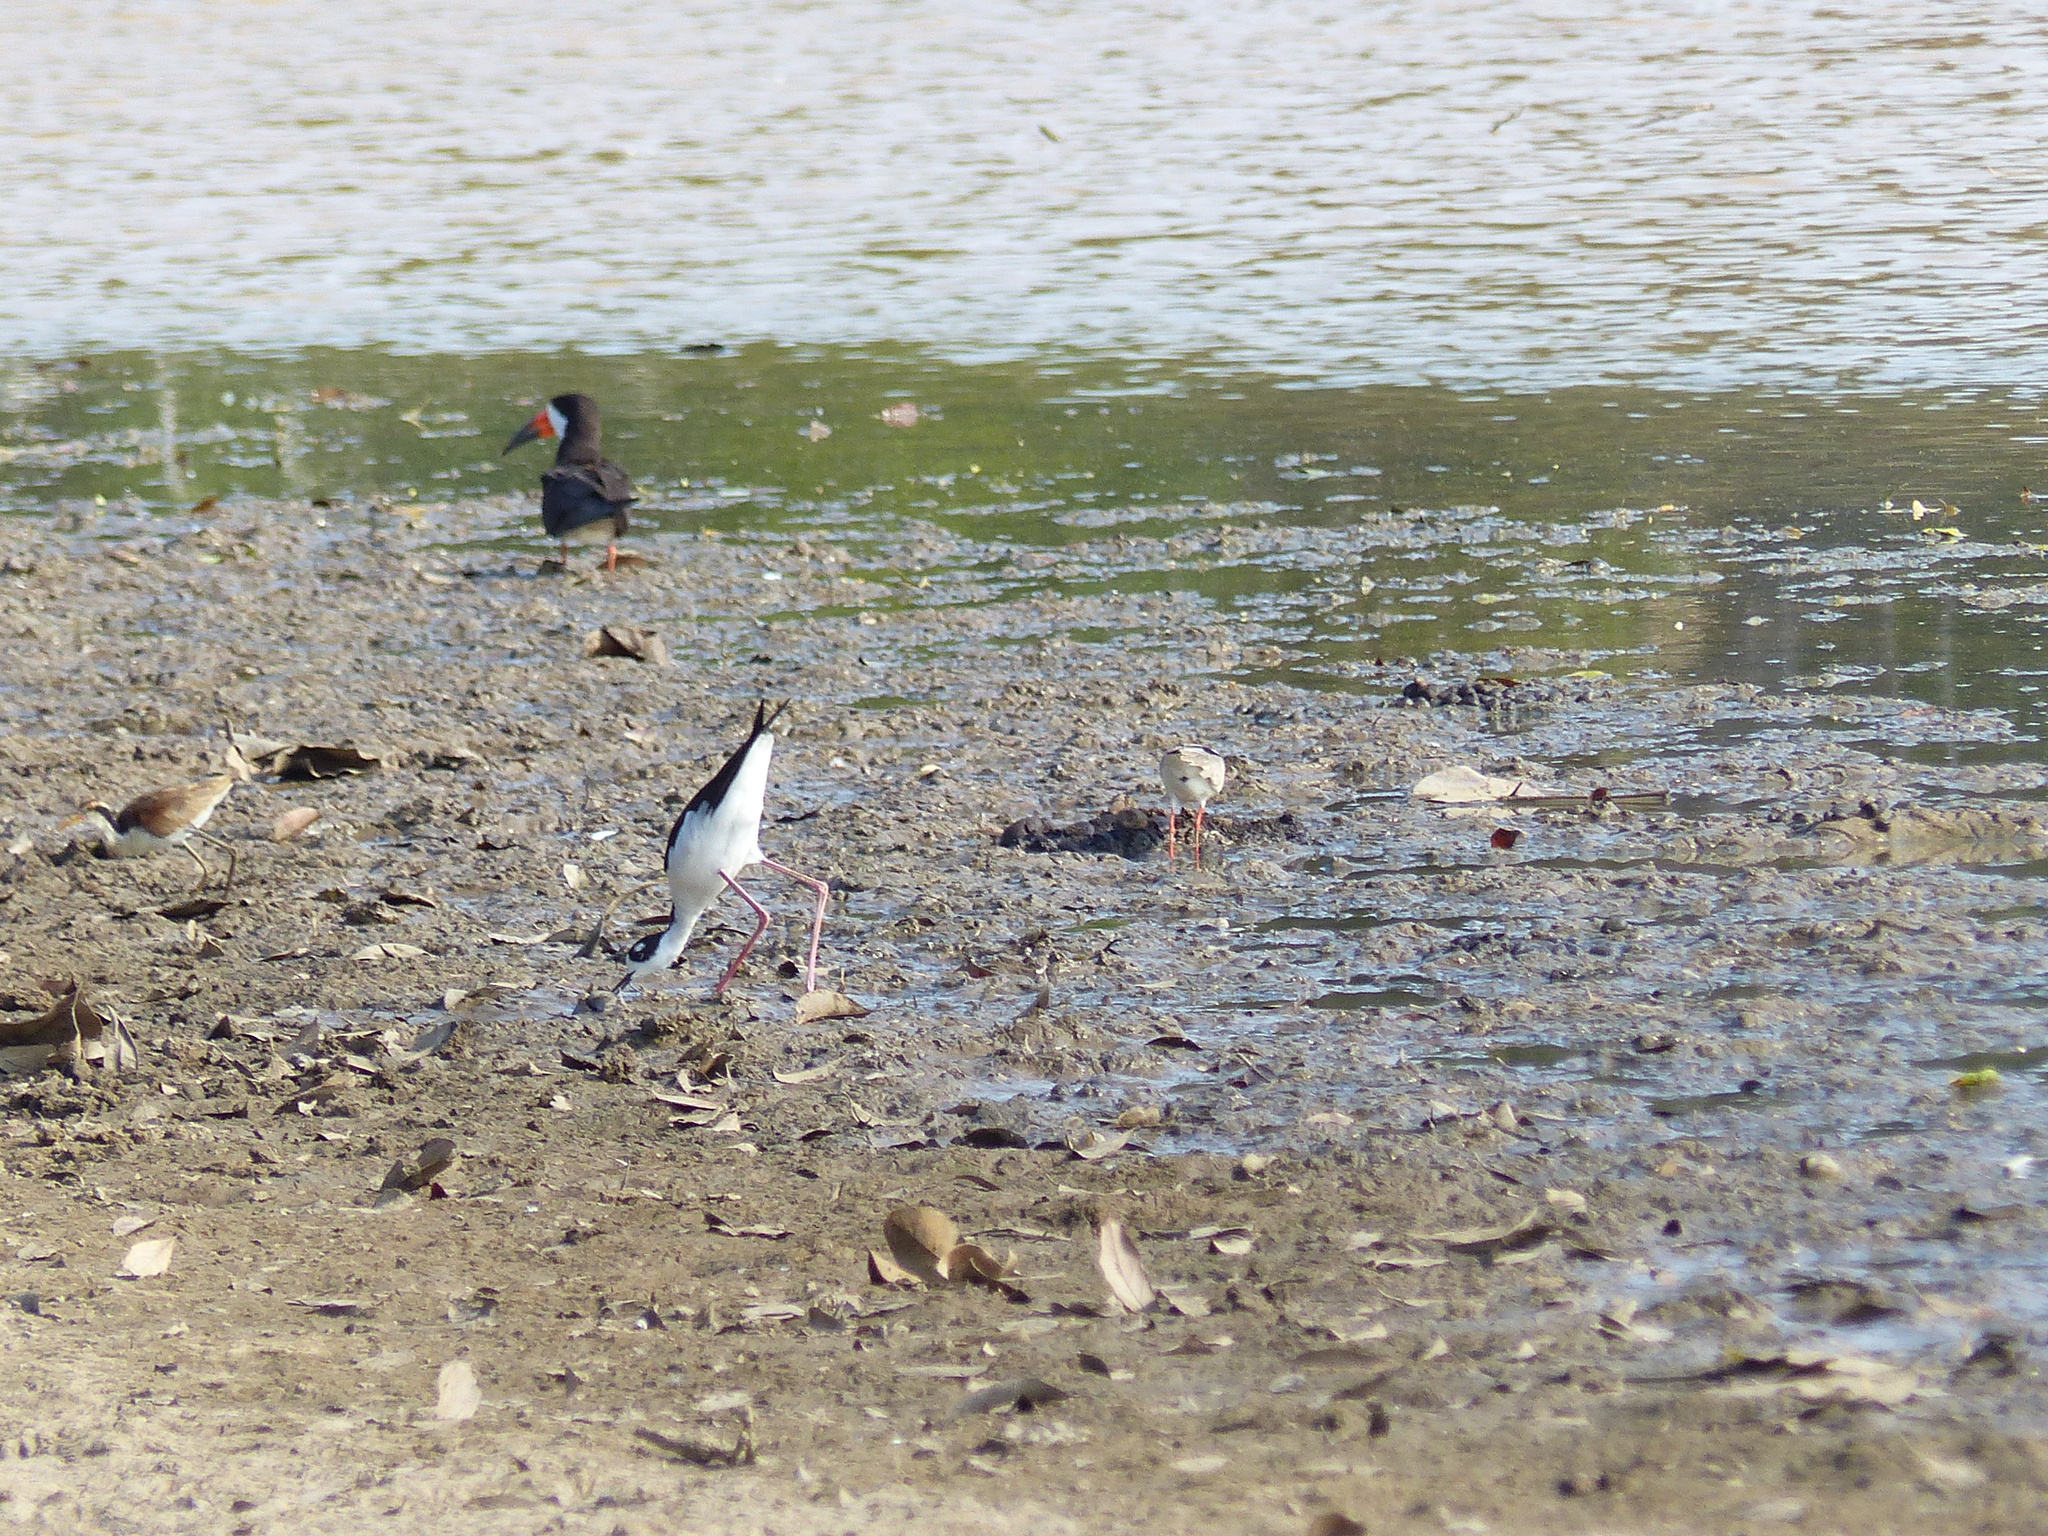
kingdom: Animalia
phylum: Chordata
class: Aves
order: Charadriiformes
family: Recurvirostridae
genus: Himantopus
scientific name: Himantopus mexicanus
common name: Black-necked stilt
